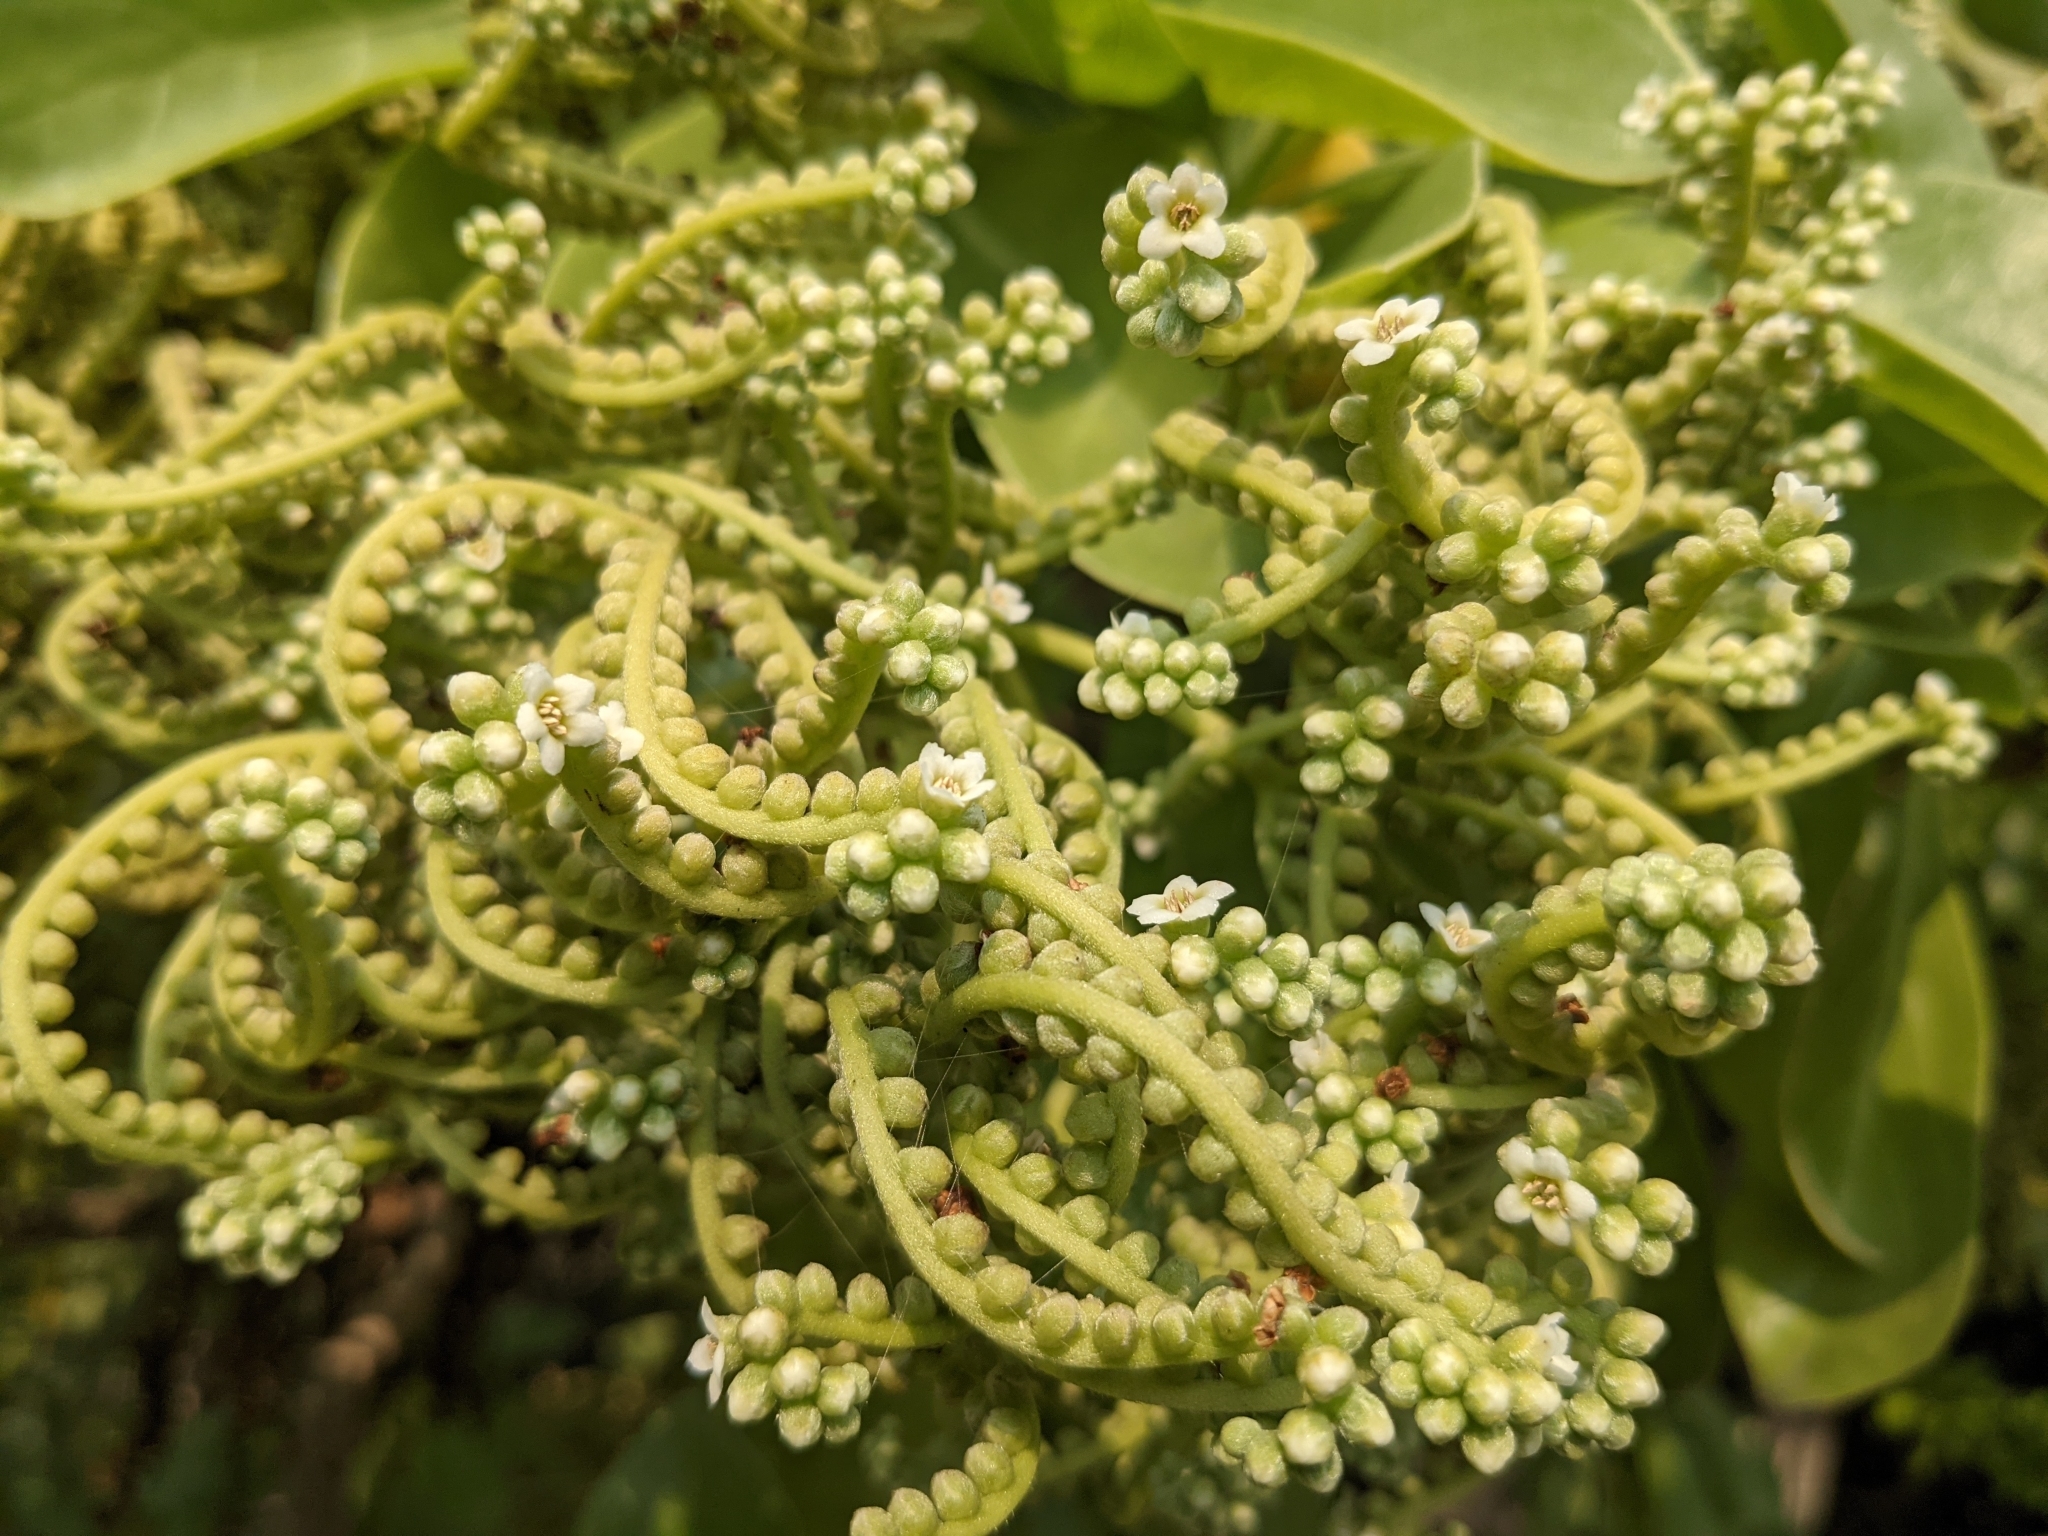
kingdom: Plantae
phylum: Tracheophyta
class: Magnoliopsida
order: Boraginales
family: Heliotropiaceae
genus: Heliotropium
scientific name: Heliotropium velutinum
